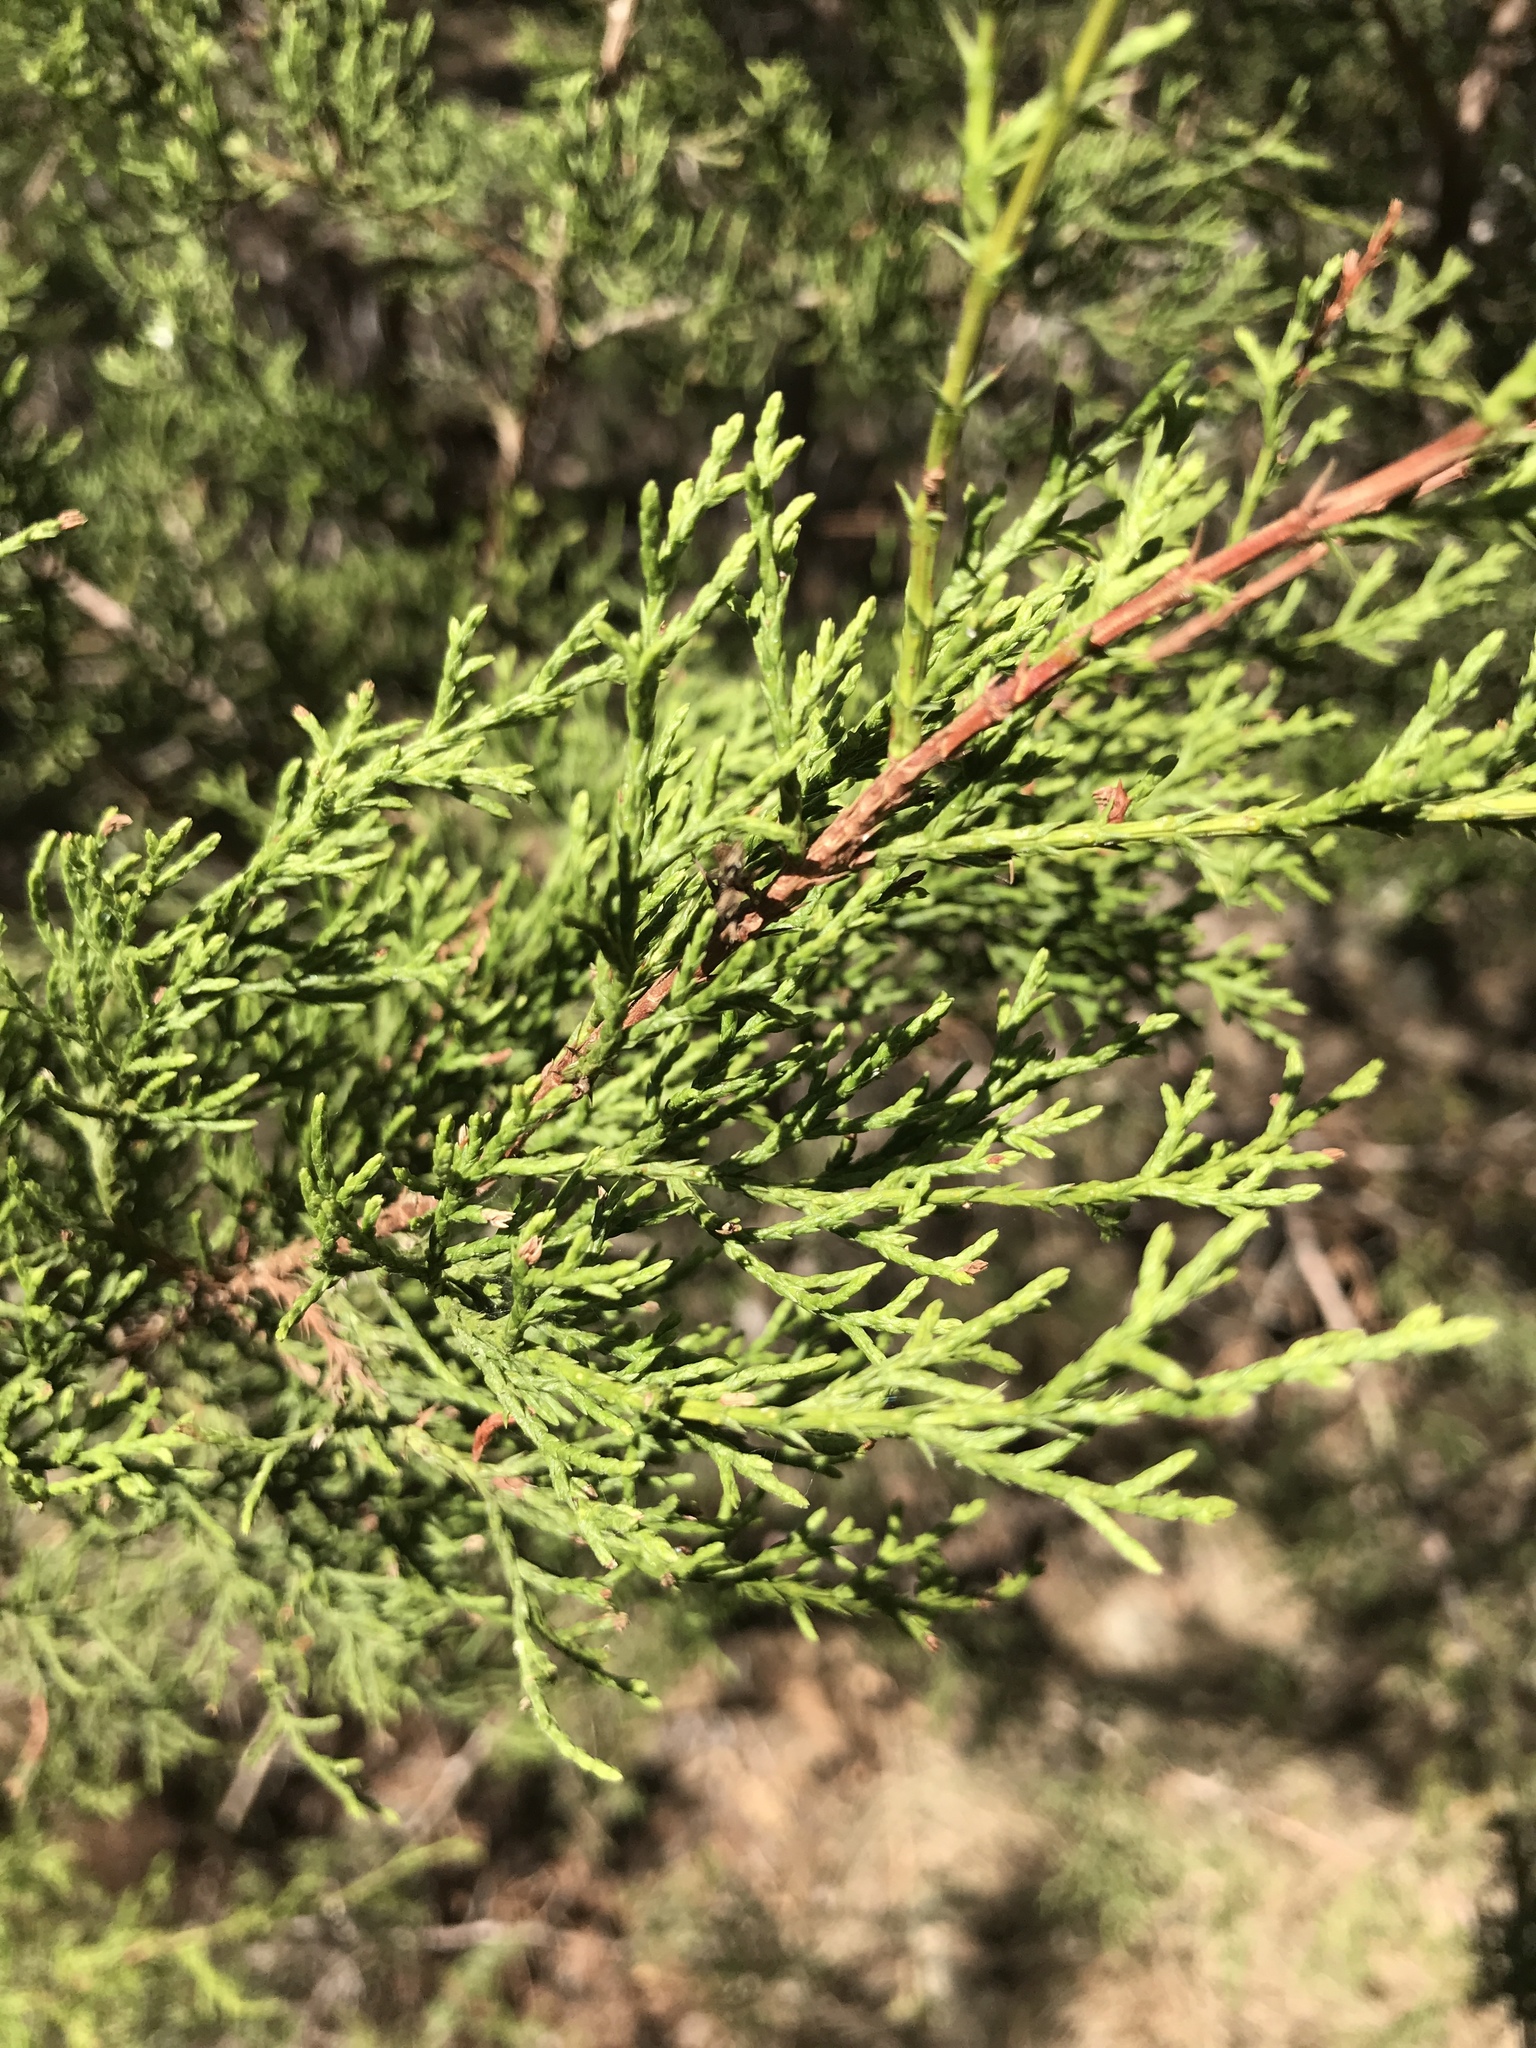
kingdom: Plantae
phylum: Tracheophyta
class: Pinopsida
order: Pinales
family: Cupressaceae
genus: Juniperus
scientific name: Juniperus ashei
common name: Mexican juniper
